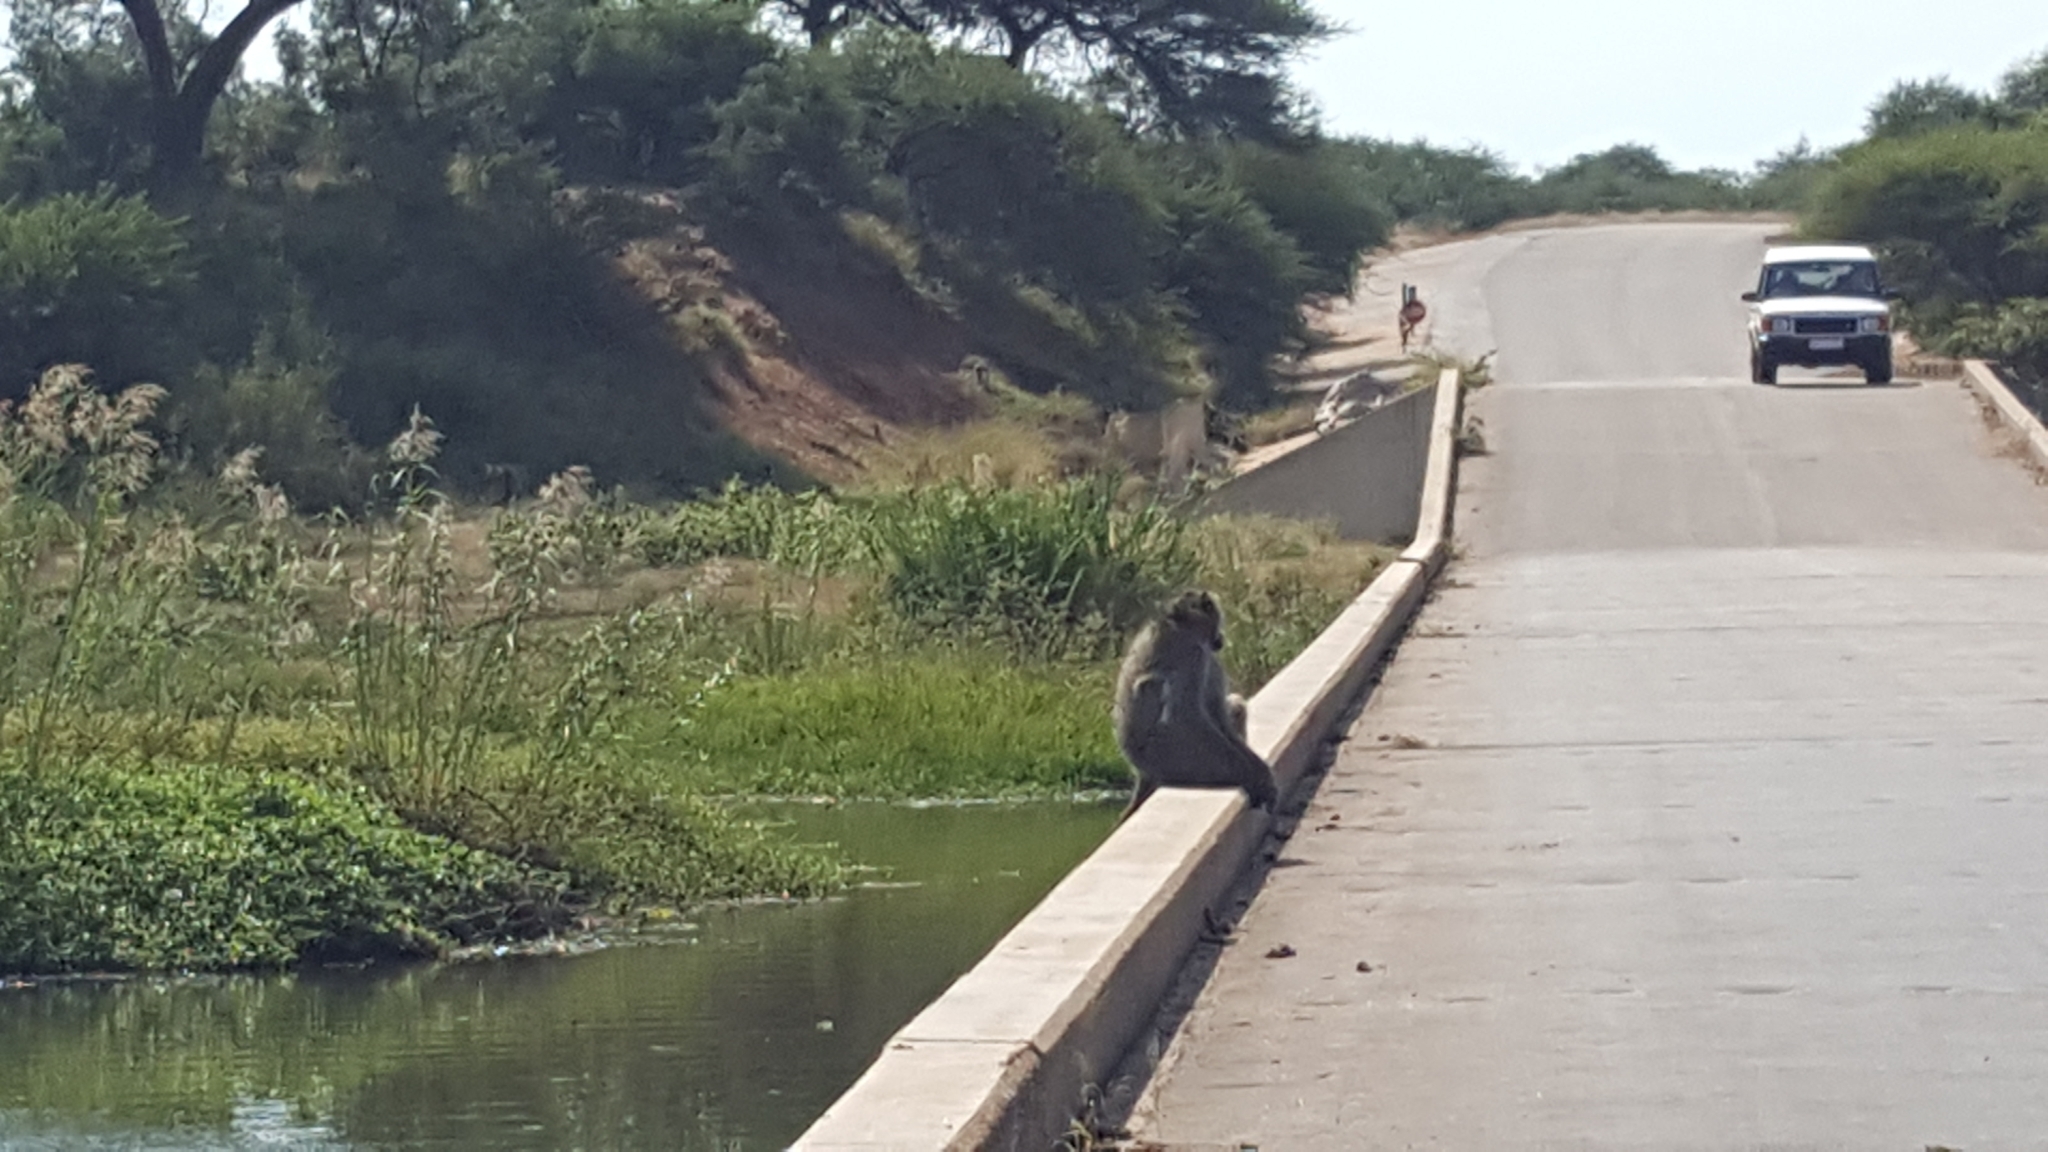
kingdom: Animalia
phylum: Chordata
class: Mammalia
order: Primates
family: Cercopithecidae
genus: Papio
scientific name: Papio ursinus
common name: Chacma baboon
